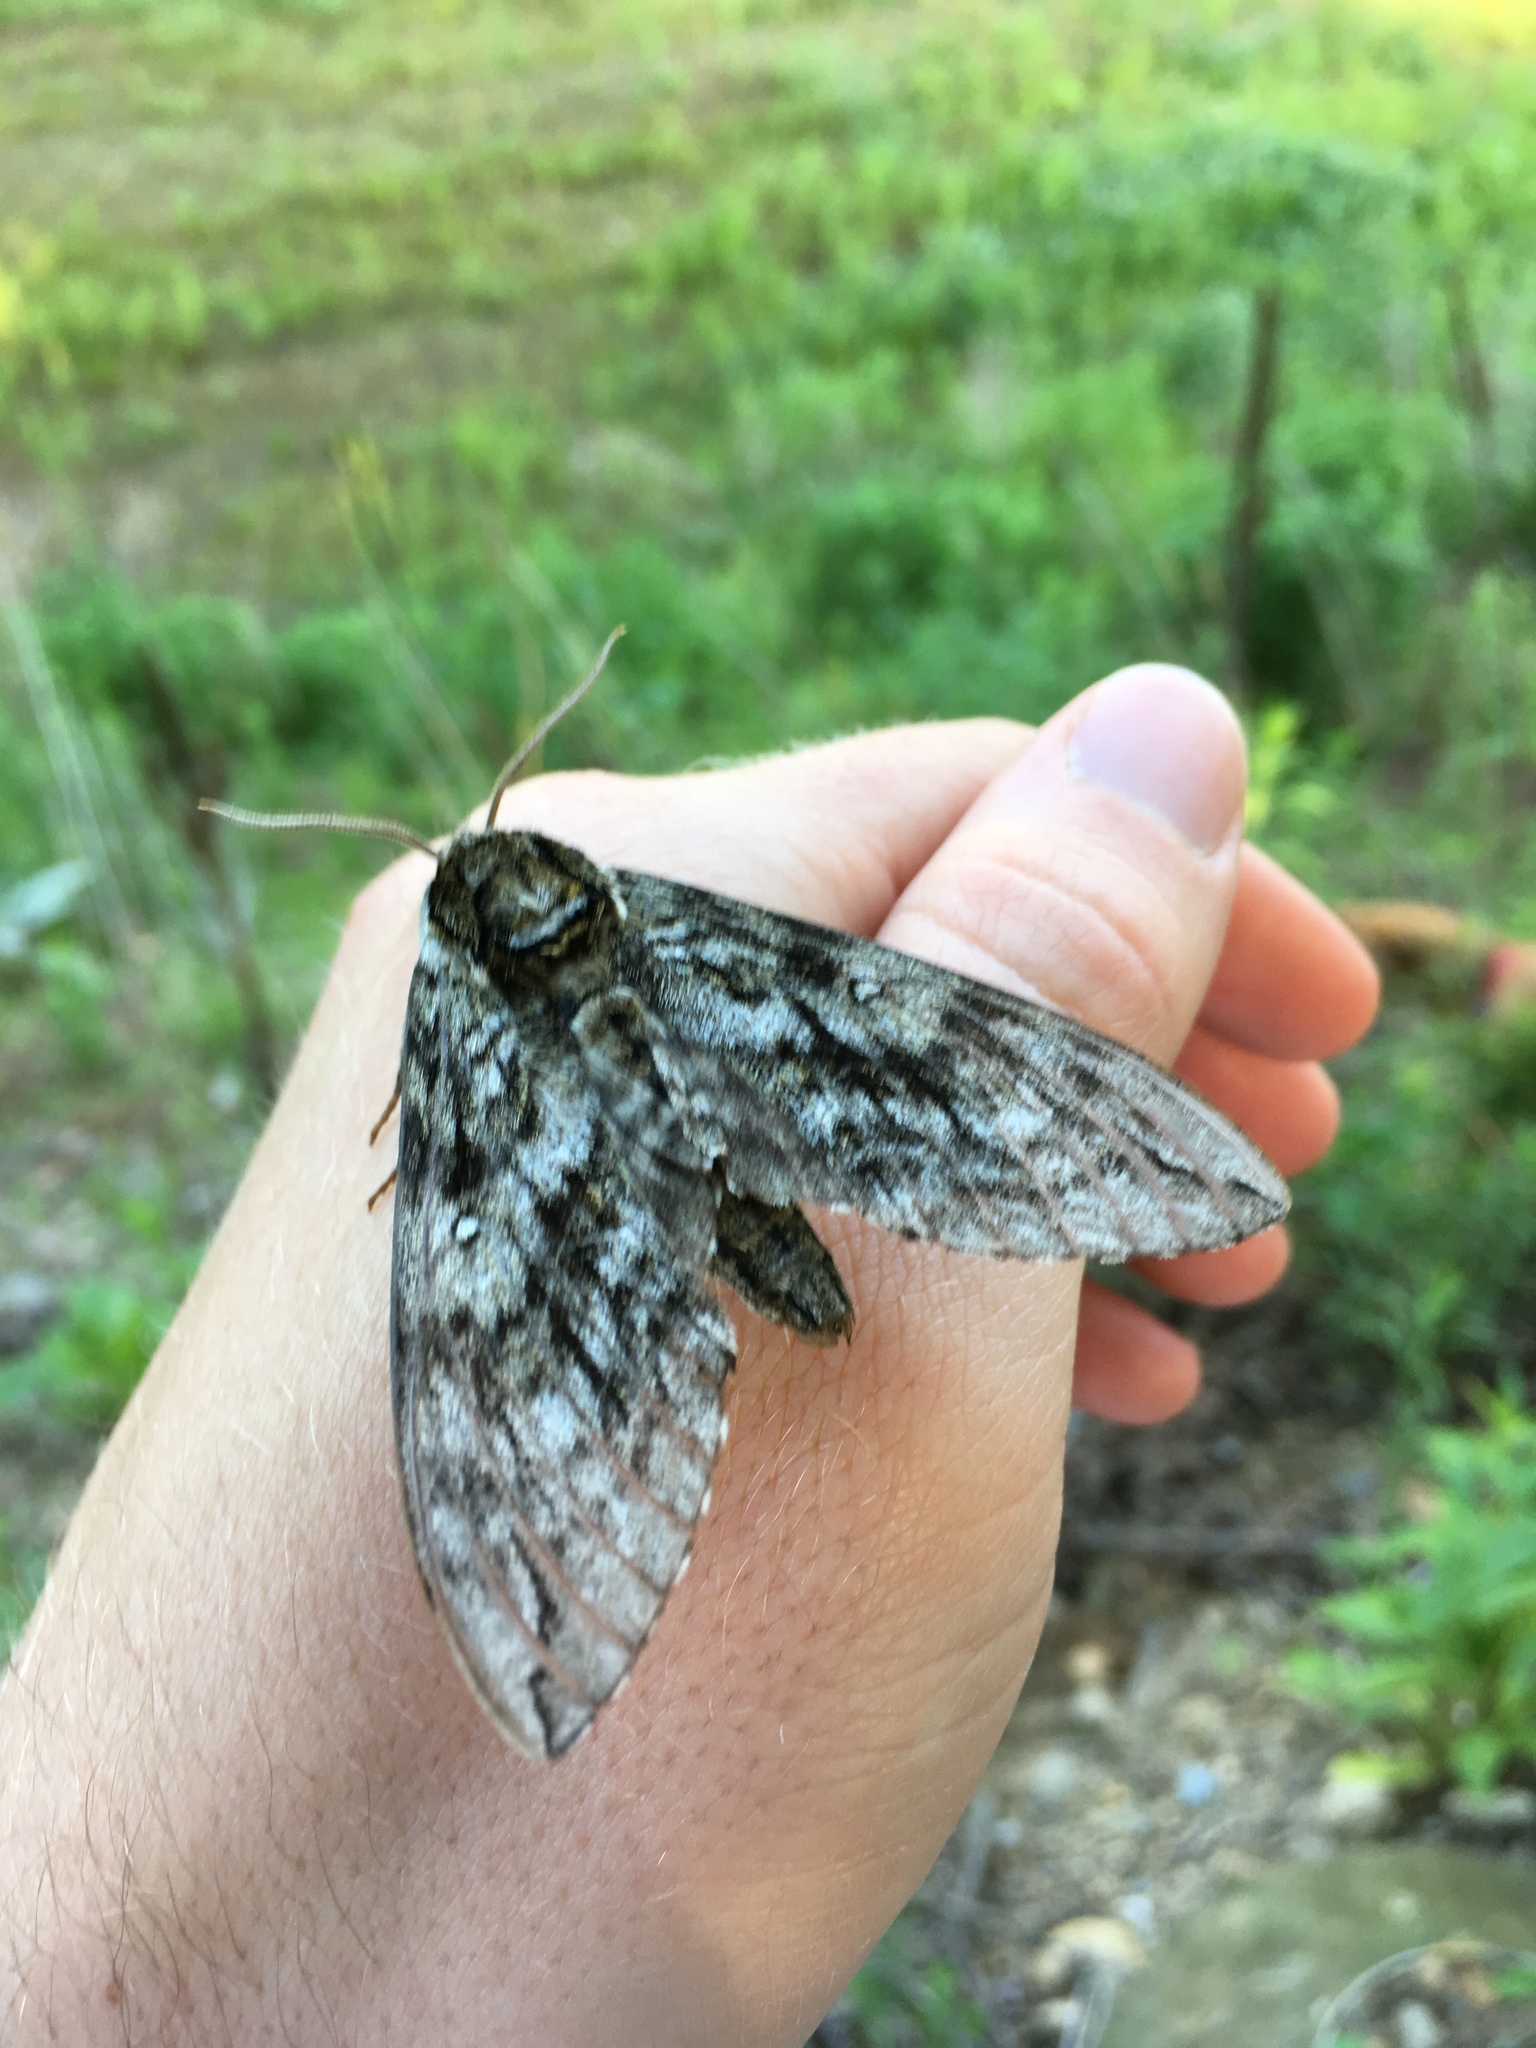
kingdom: Animalia
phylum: Arthropoda
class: Insecta
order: Lepidoptera
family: Sphingidae
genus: Ceratomia
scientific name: Ceratomia undulosa
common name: Waved sphinx
